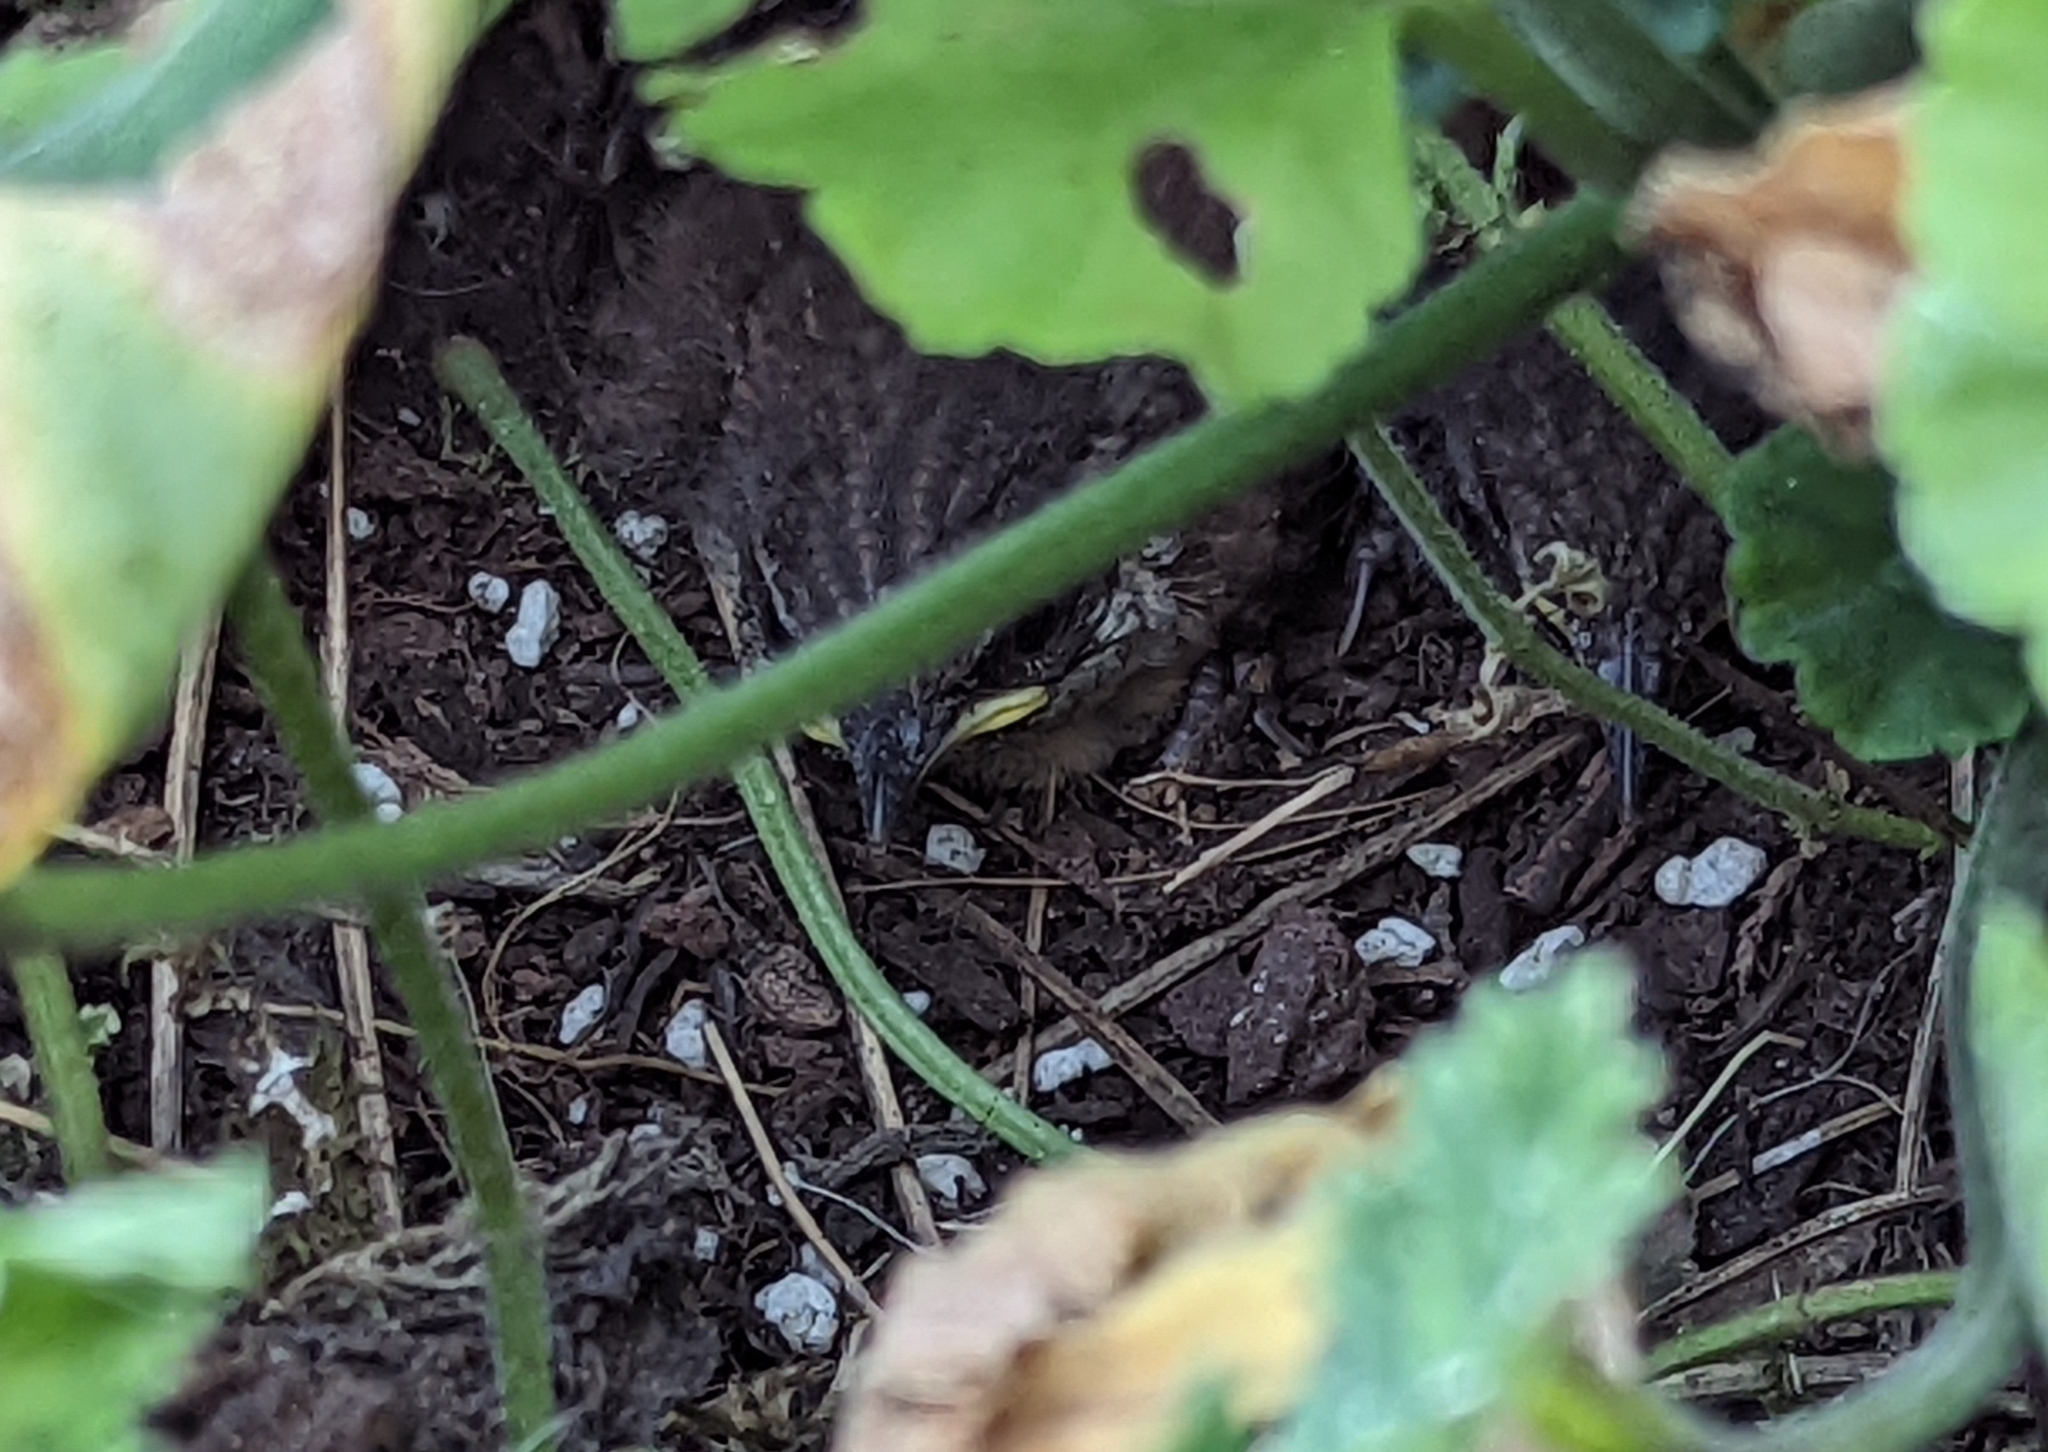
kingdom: Animalia
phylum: Chordata
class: Aves
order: Passeriformes
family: Troglodytidae
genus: Thryothorus
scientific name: Thryothorus ludovicianus
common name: Carolina wren
